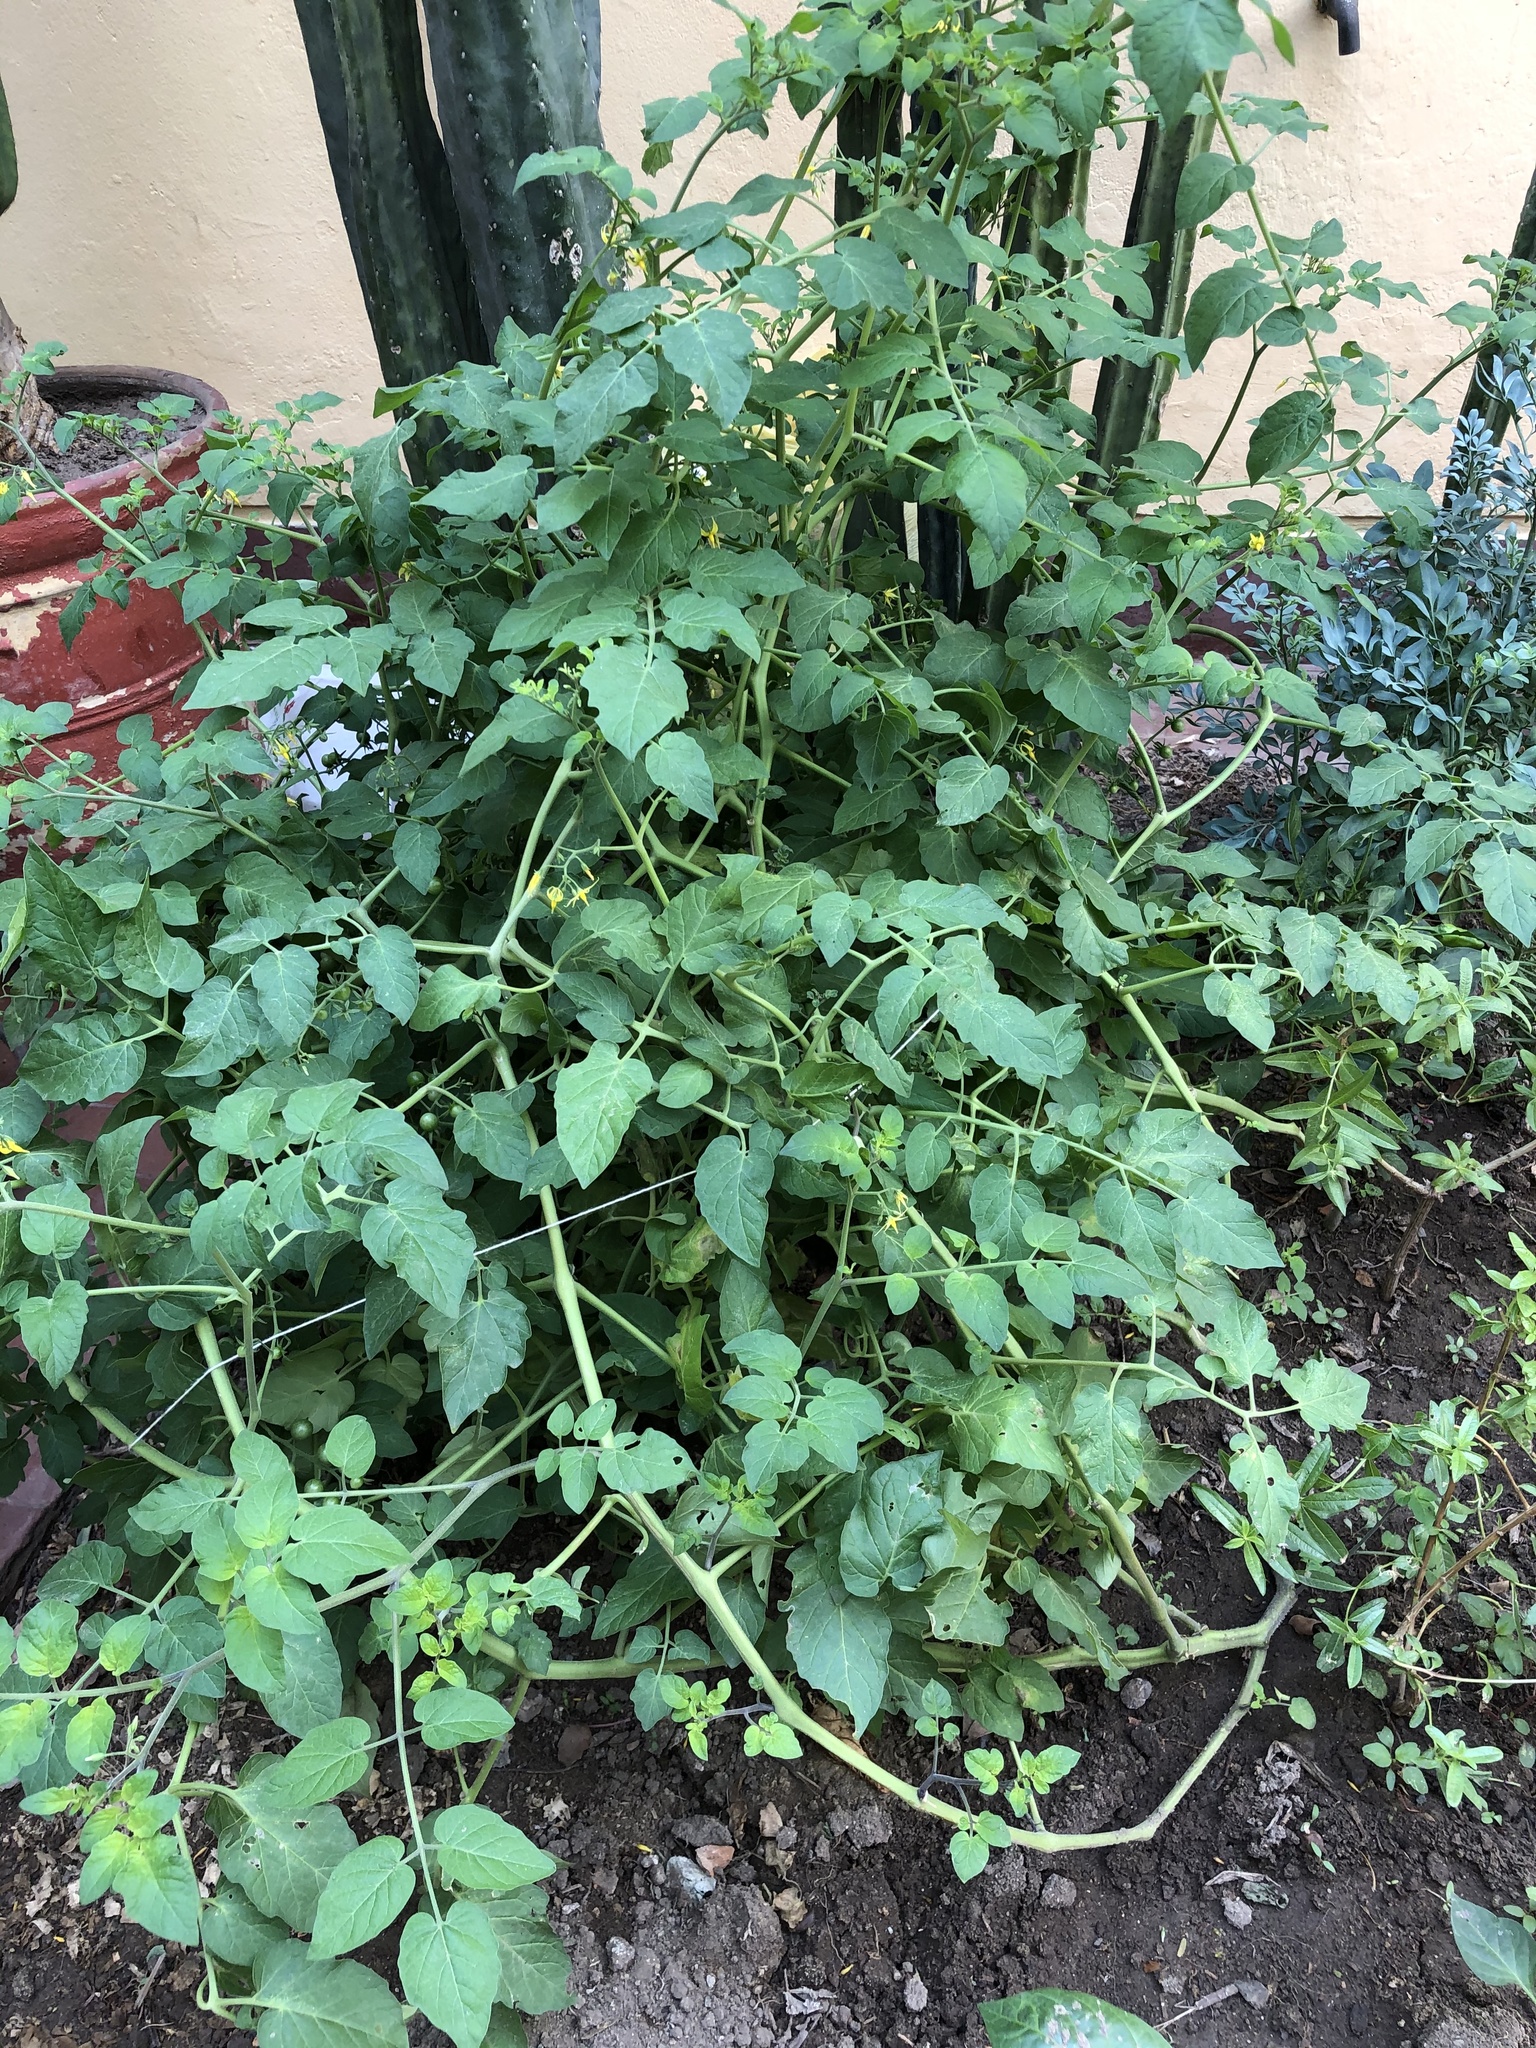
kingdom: Plantae
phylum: Tracheophyta
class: Magnoliopsida
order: Solanales
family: Solanaceae
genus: Solanum
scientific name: Solanum pimpinellifolium
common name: Currant-tomato
